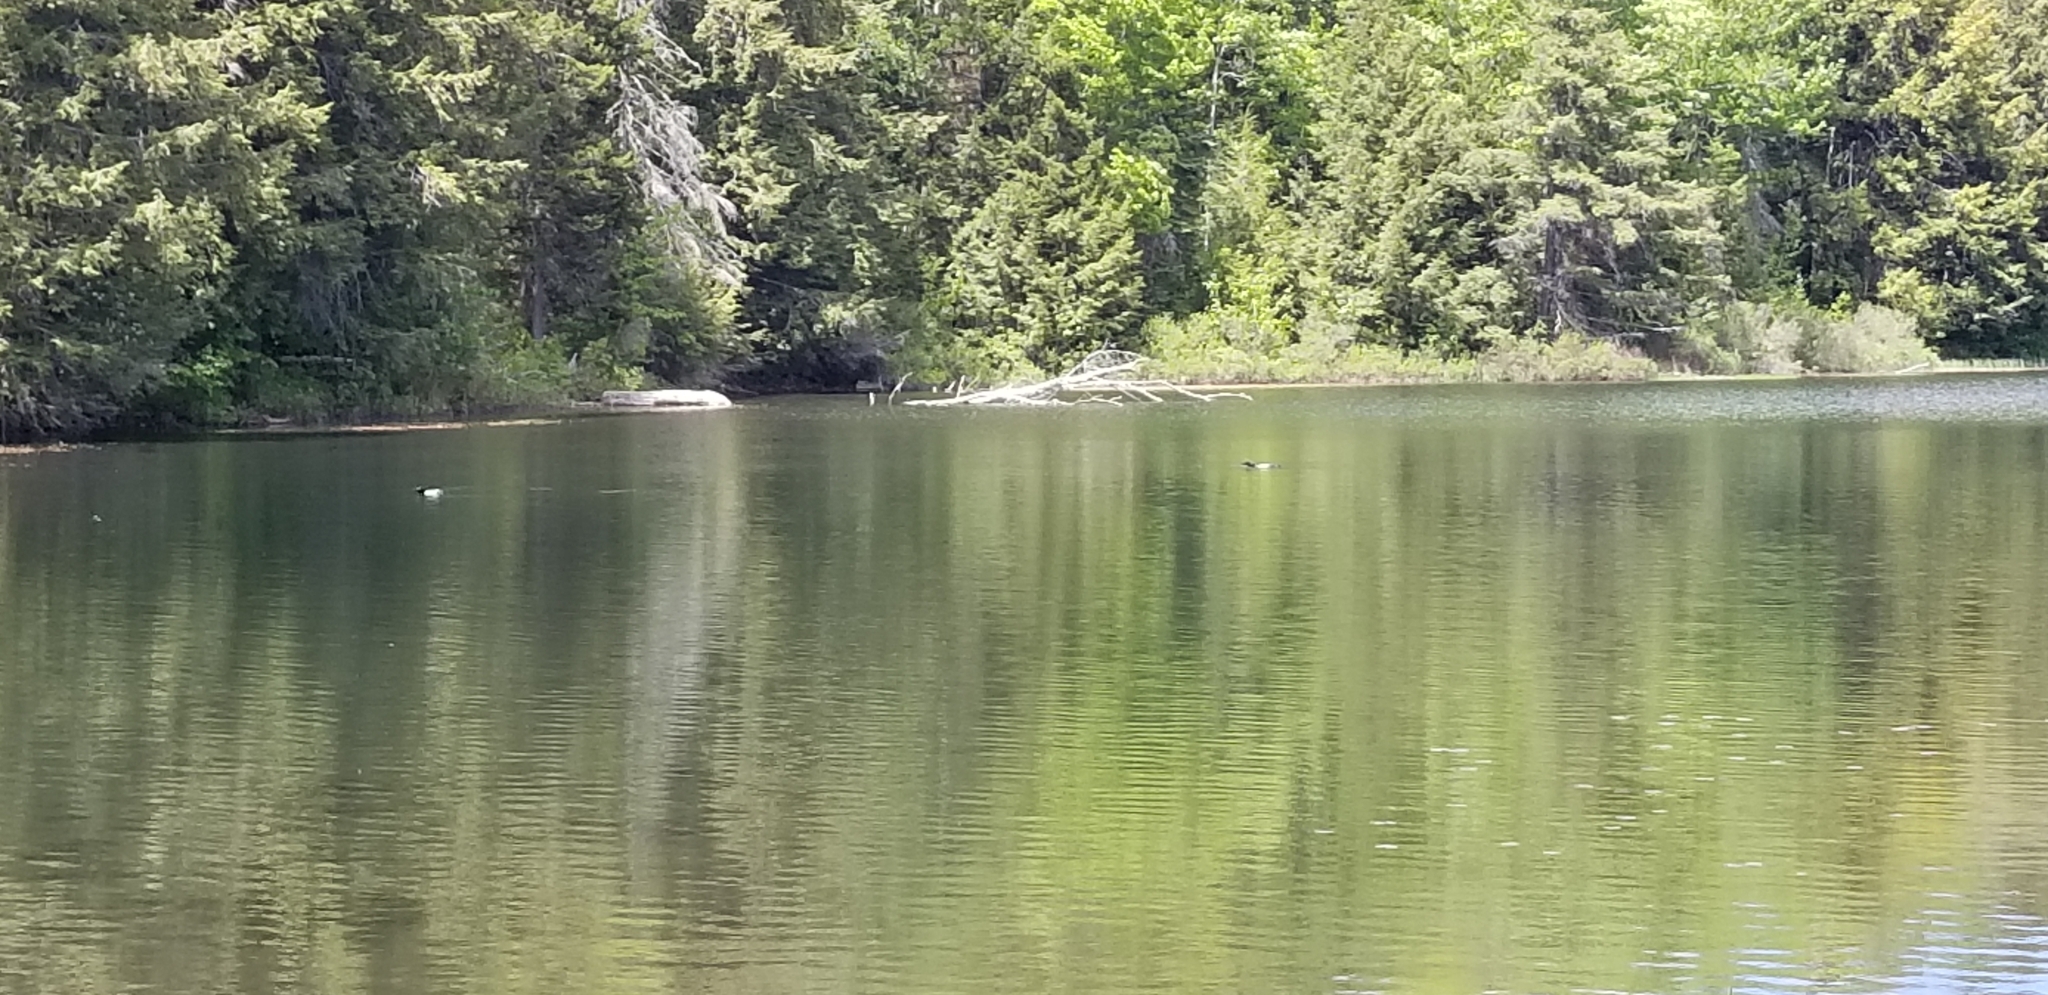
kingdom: Animalia
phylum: Chordata
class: Aves
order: Gaviiformes
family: Gaviidae
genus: Gavia
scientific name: Gavia immer
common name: Common loon
